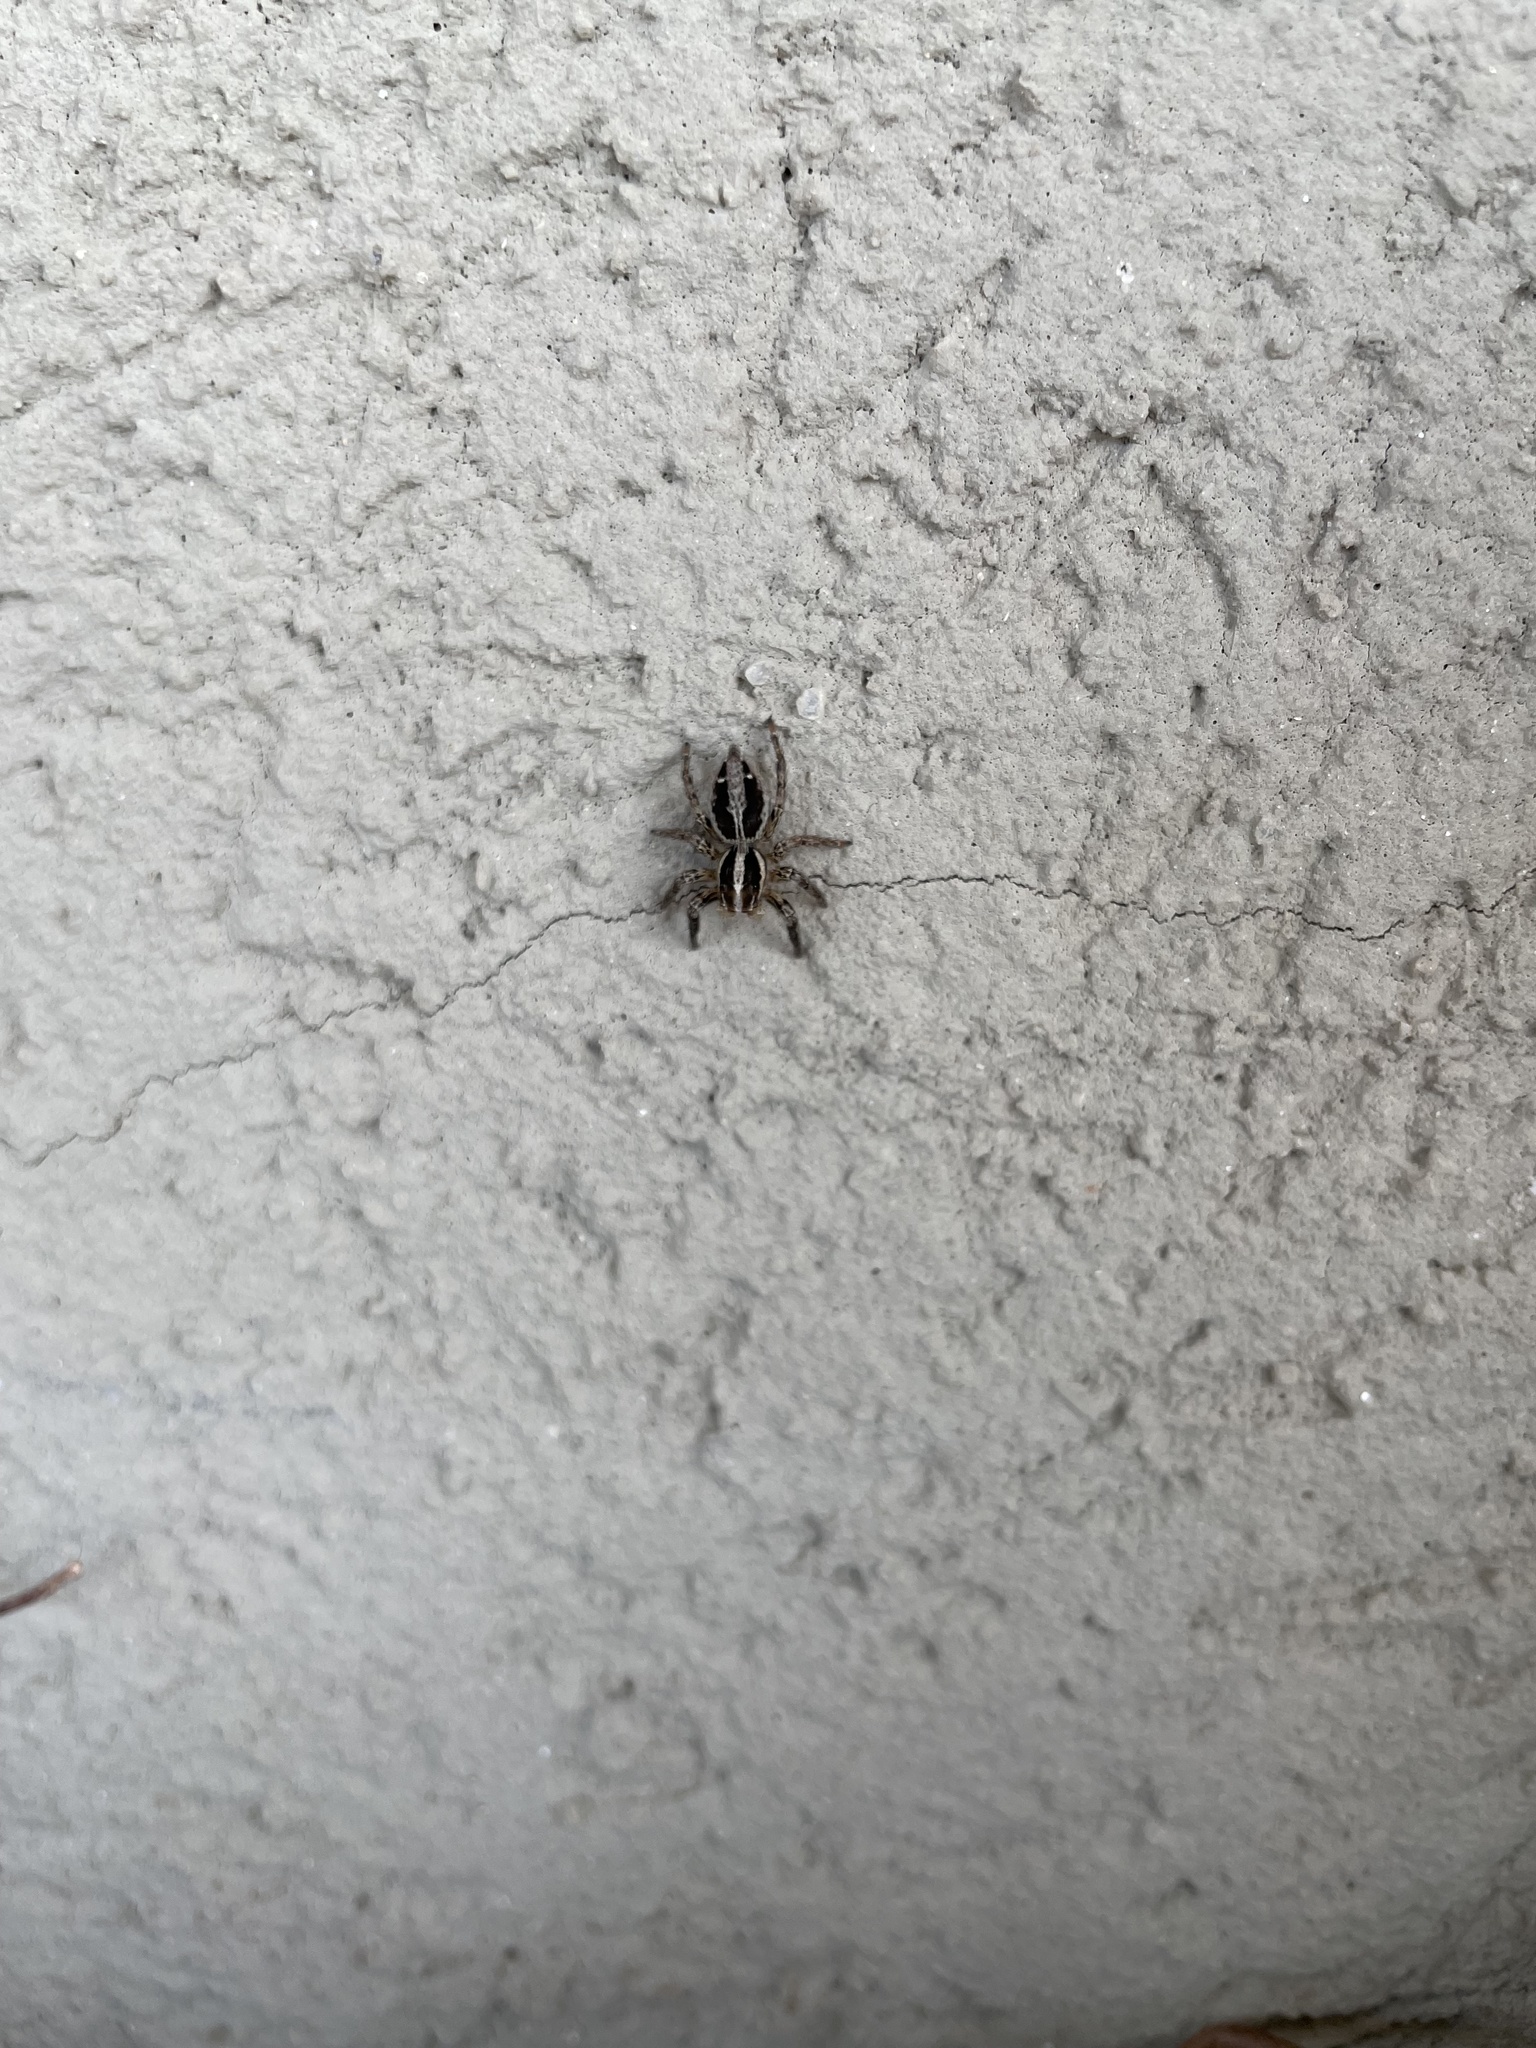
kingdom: Animalia
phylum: Arthropoda
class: Arachnida
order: Araneae
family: Salticidae
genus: Plexippus
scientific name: Plexippus paykulli
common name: Pantropical jumper
